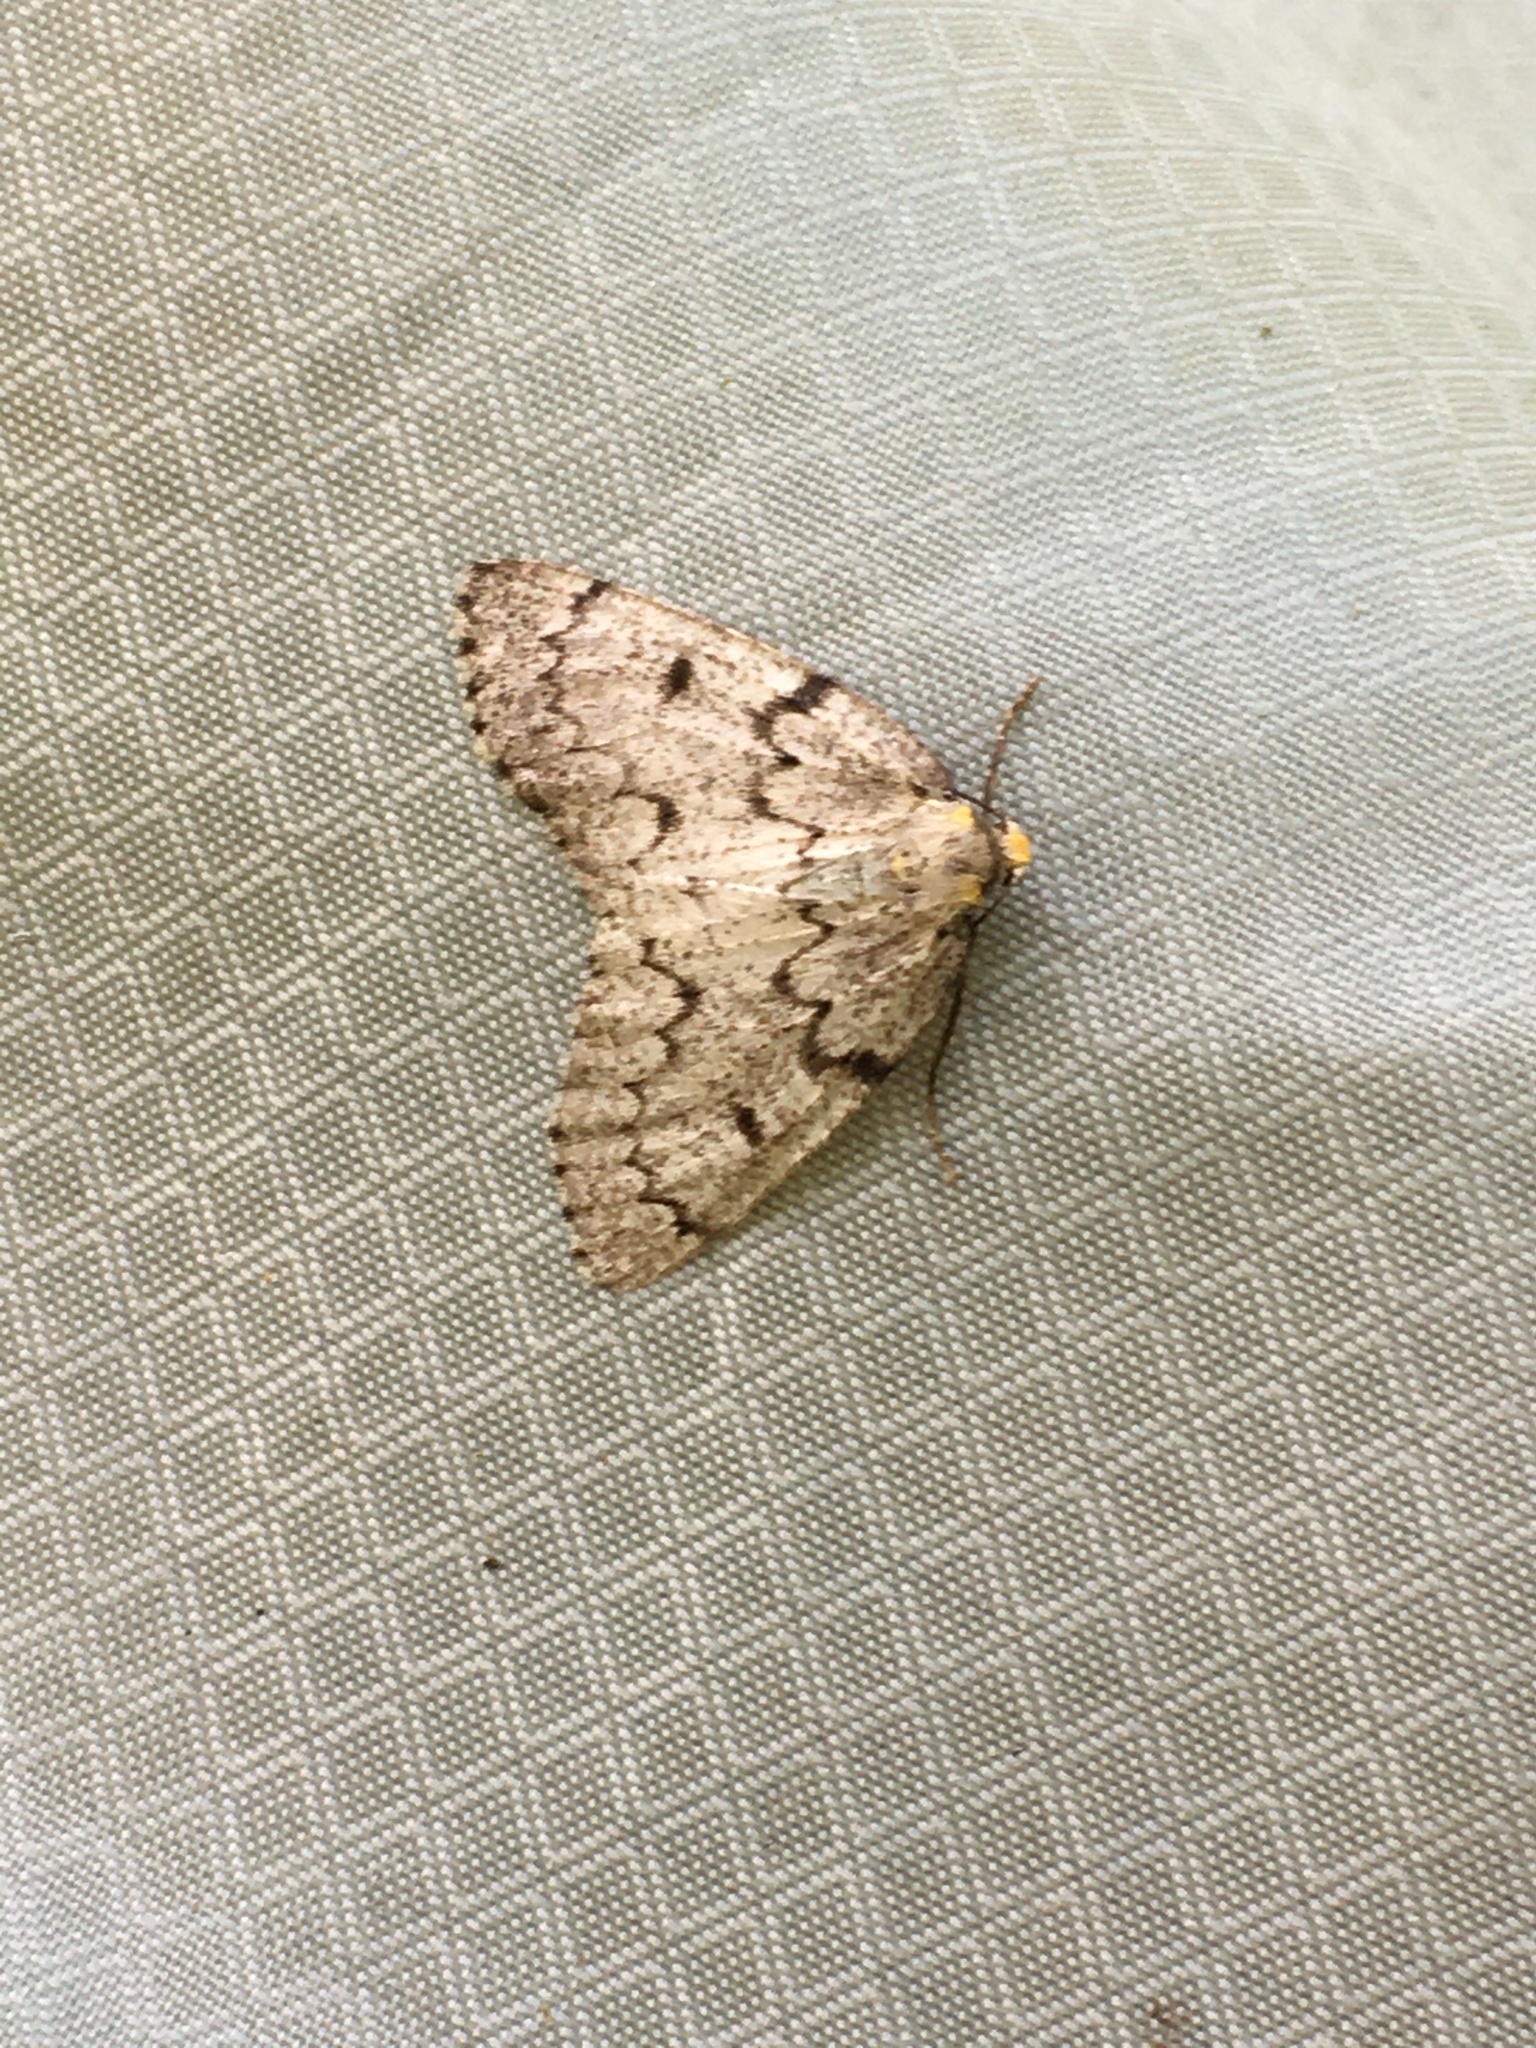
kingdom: Animalia
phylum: Arthropoda
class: Insecta
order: Lepidoptera
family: Geometridae
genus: Nepytia
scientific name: Nepytia canosaria
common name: False hemlock looper
